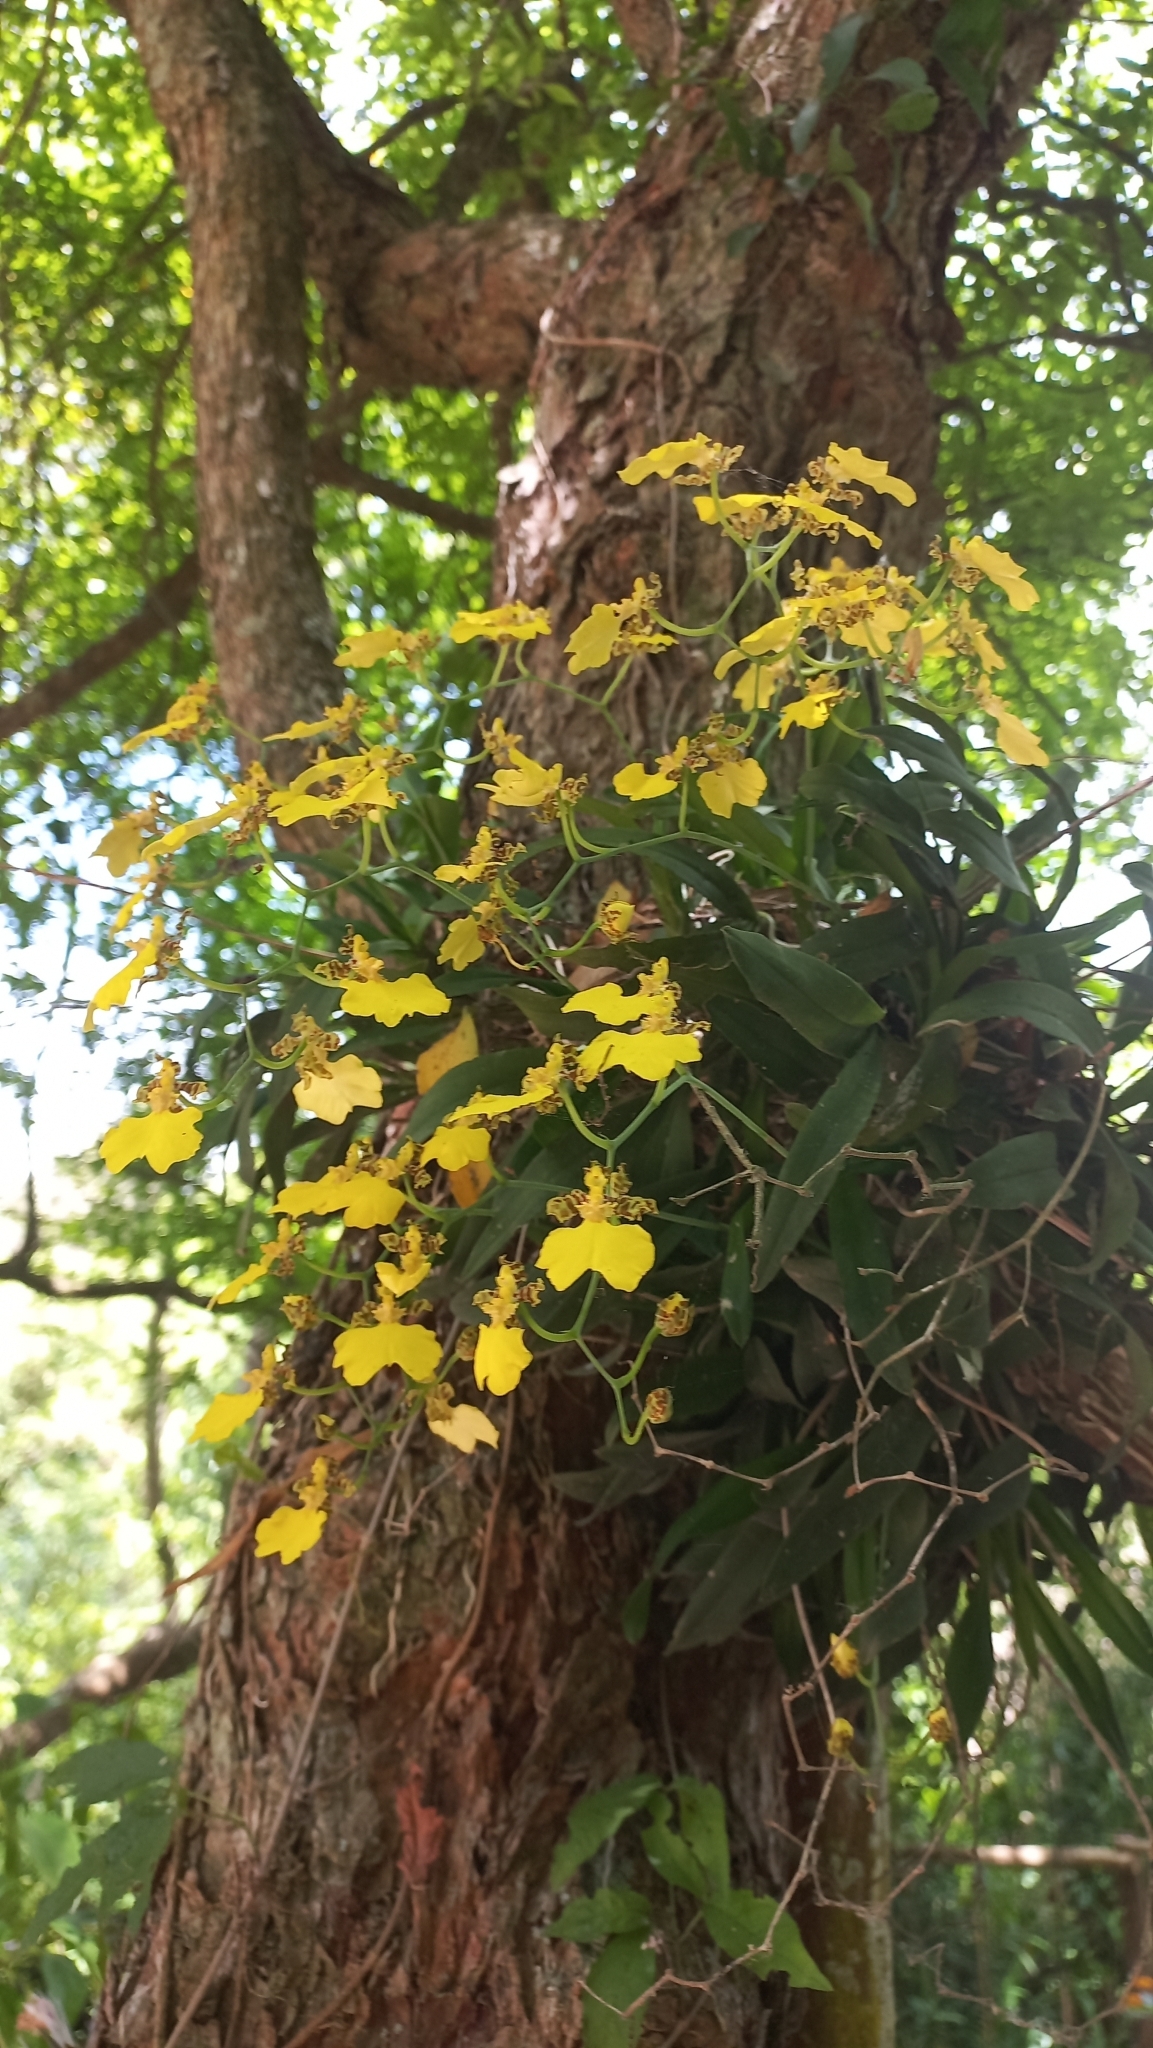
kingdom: Plantae
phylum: Tracheophyta
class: Liliopsida
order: Asparagales
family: Orchidaceae
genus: Gomesa
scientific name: Gomesa bifolia
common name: Dancing ladies
